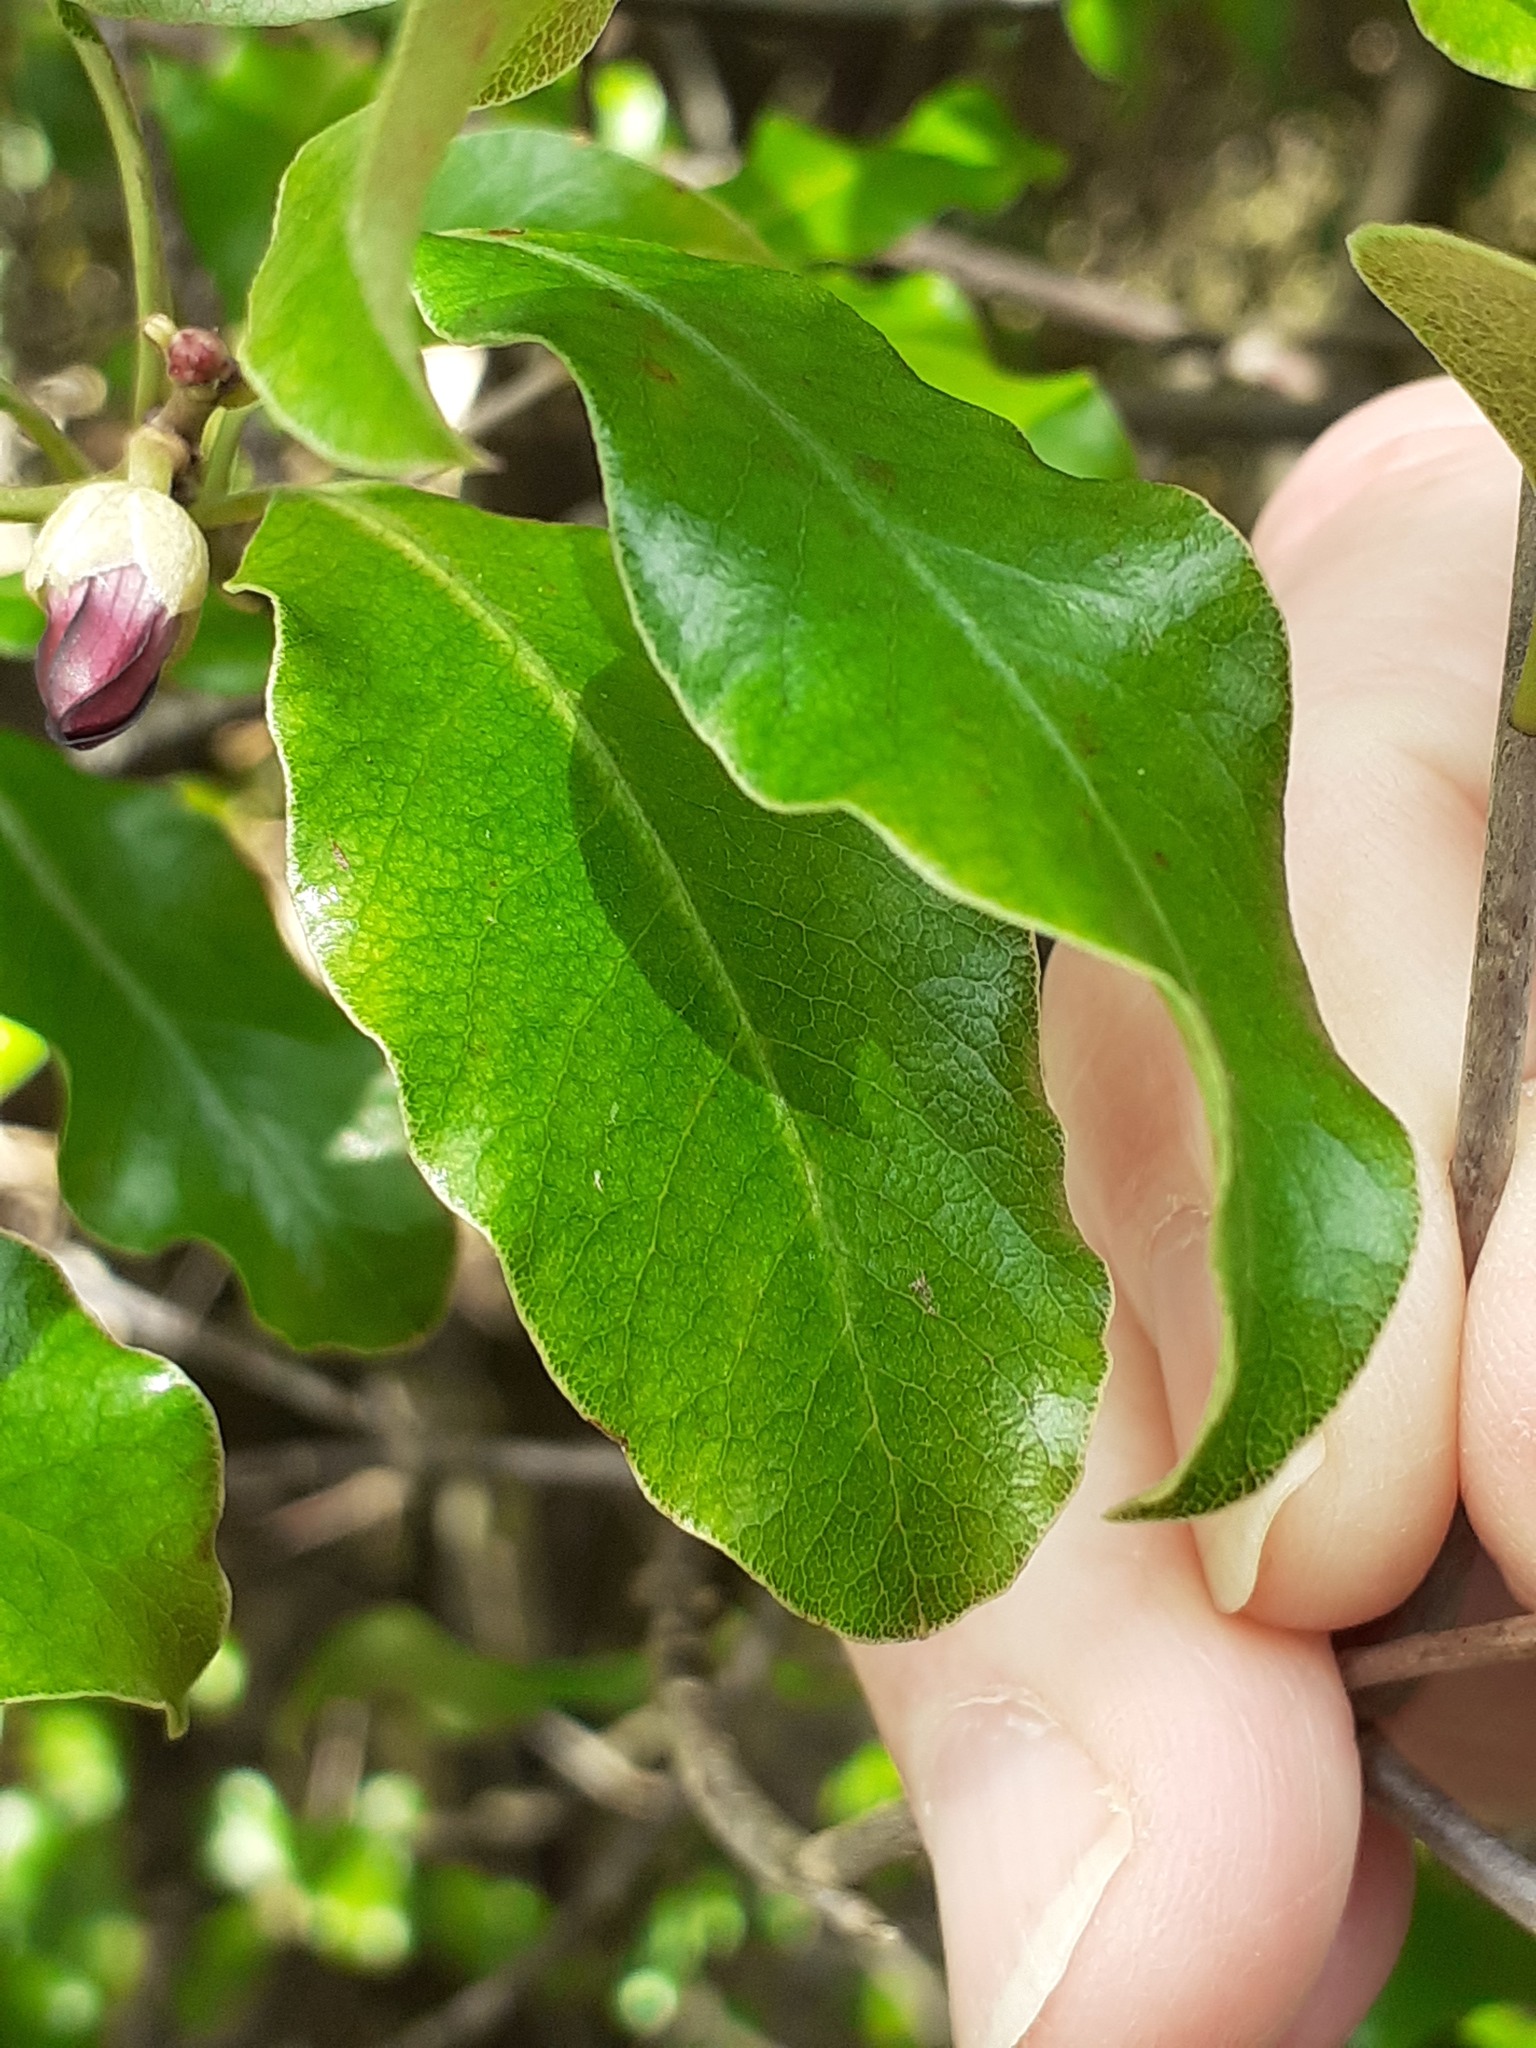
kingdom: Plantae
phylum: Tracheophyta
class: Magnoliopsida
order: Apiales
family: Pittosporaceae
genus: Pittosporum
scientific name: Pittosporum tenuifolium
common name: Kohuhu
